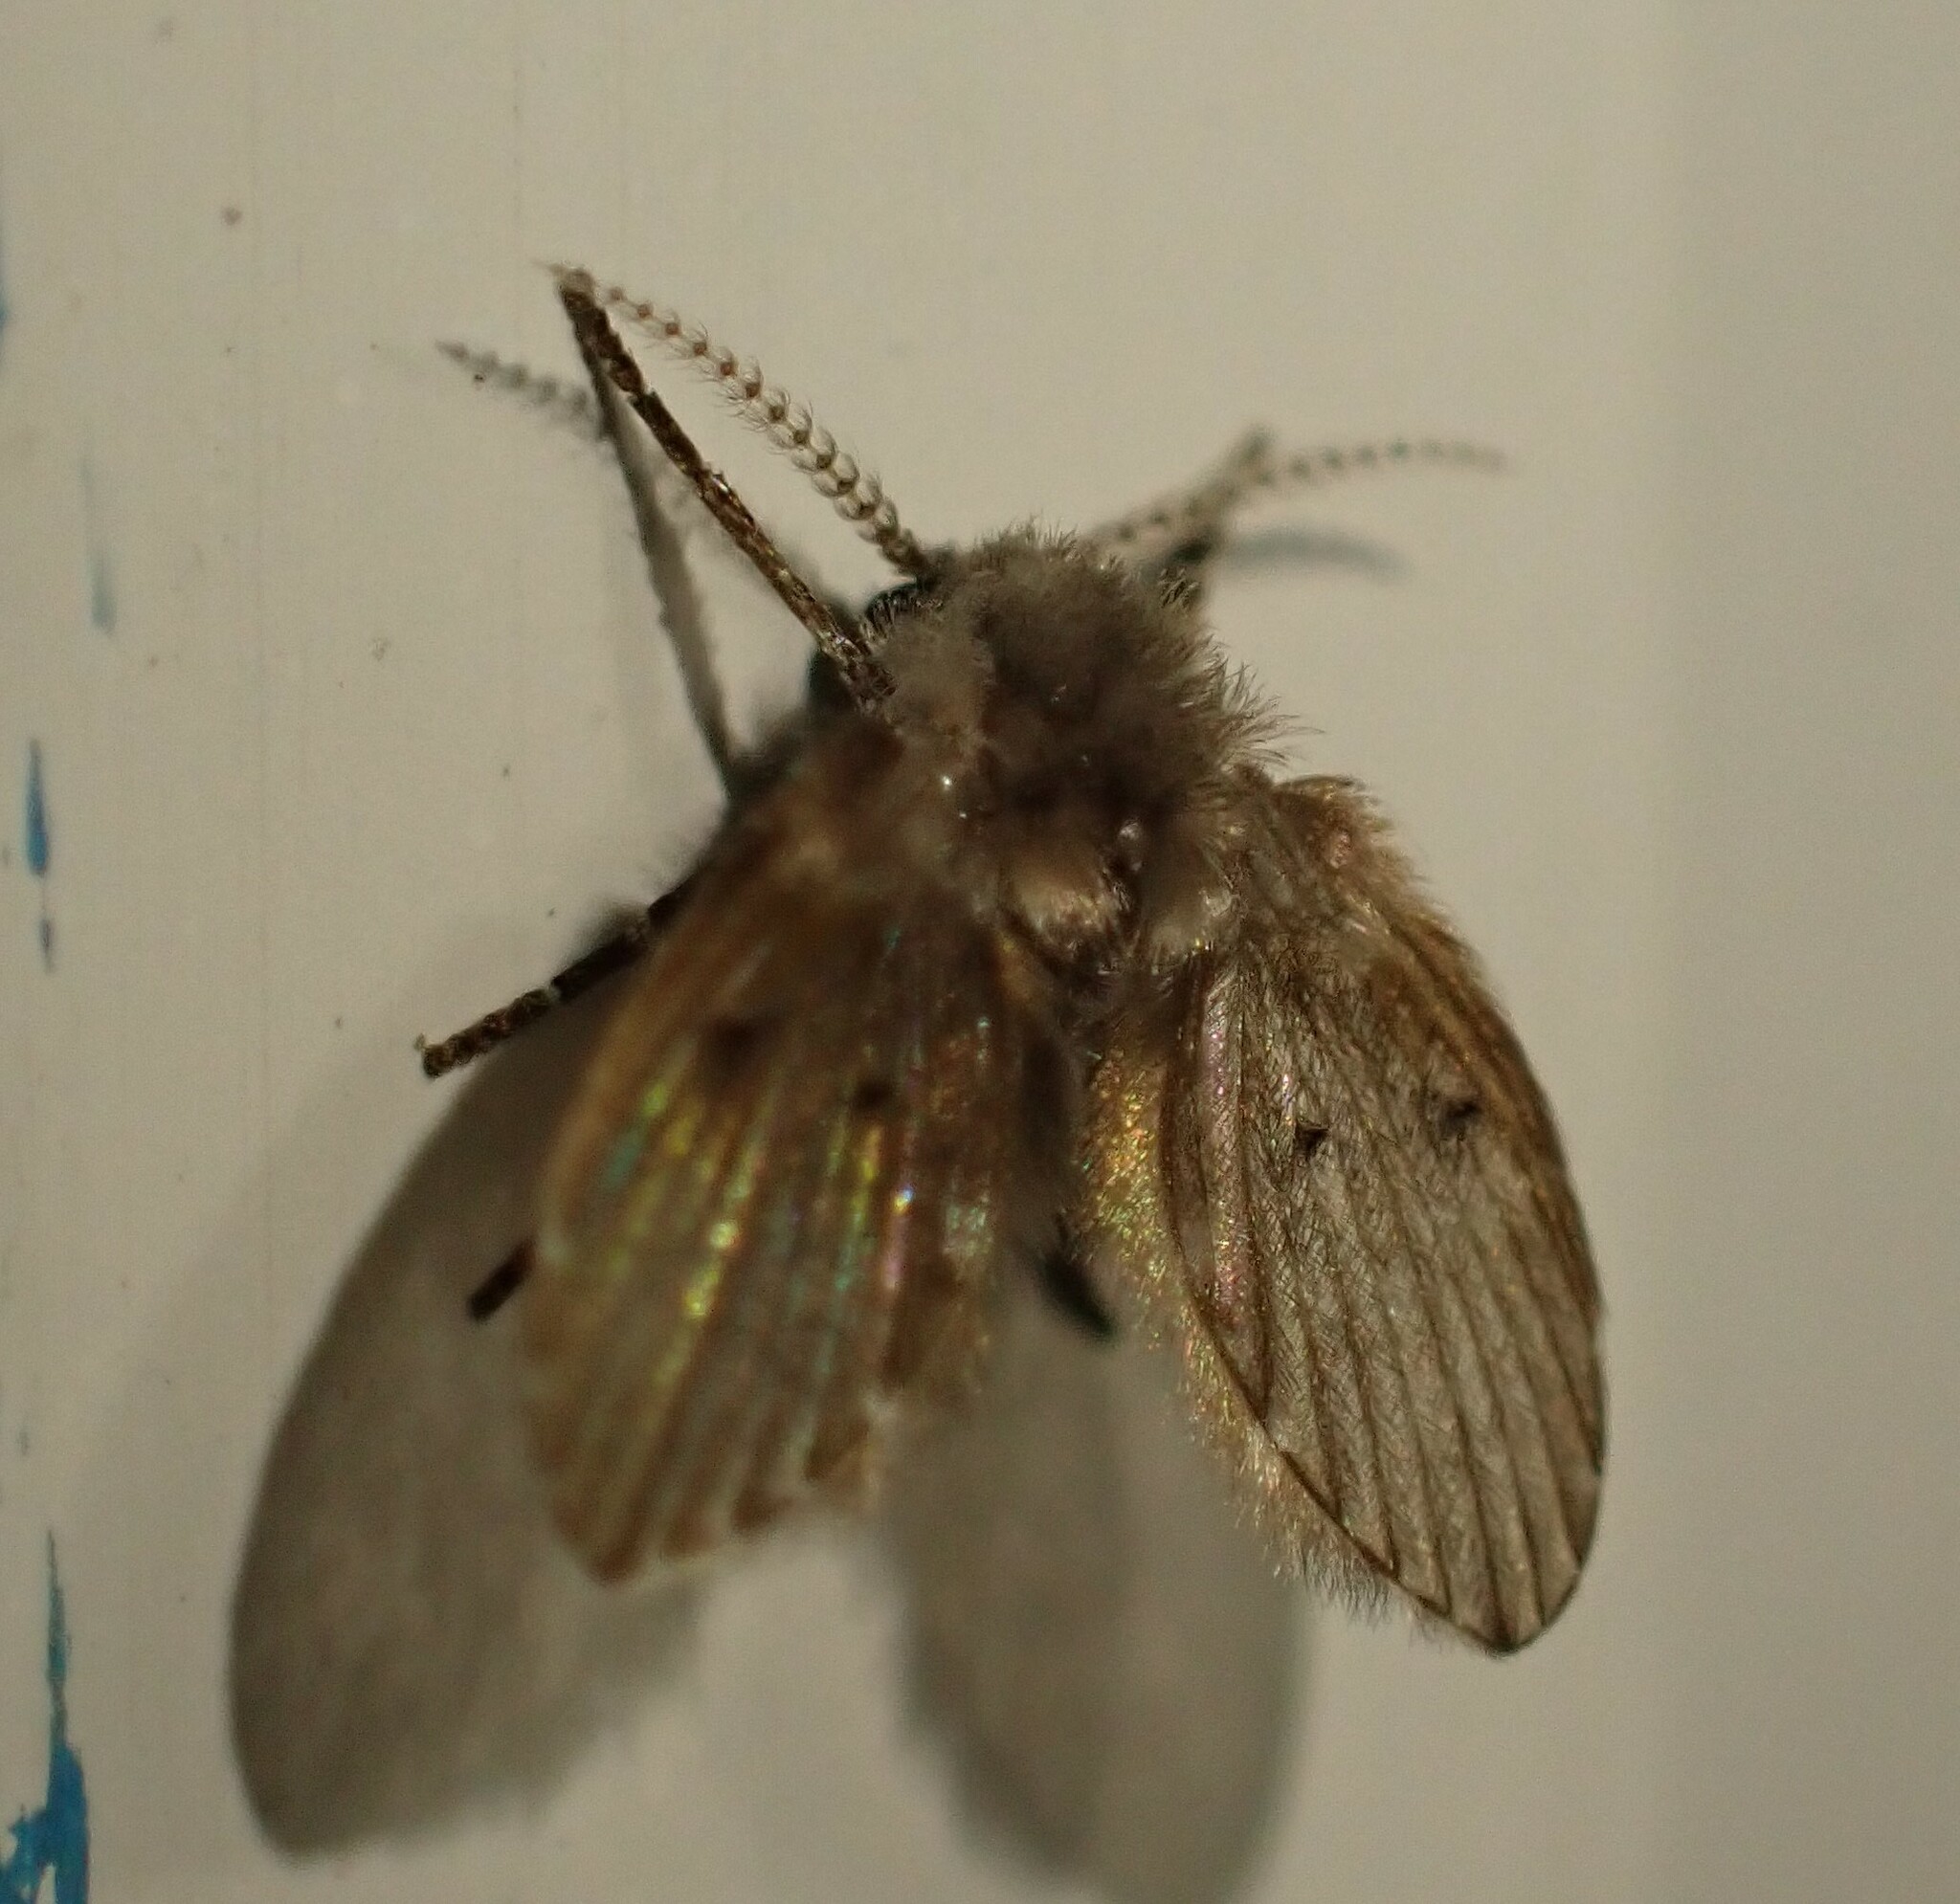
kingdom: Animalia
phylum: Arthropoda
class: Insecta
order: Diptera
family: Psychodidae
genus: Clogmia
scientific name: Clogmia albipunctatus
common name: White-spotted moth fly
